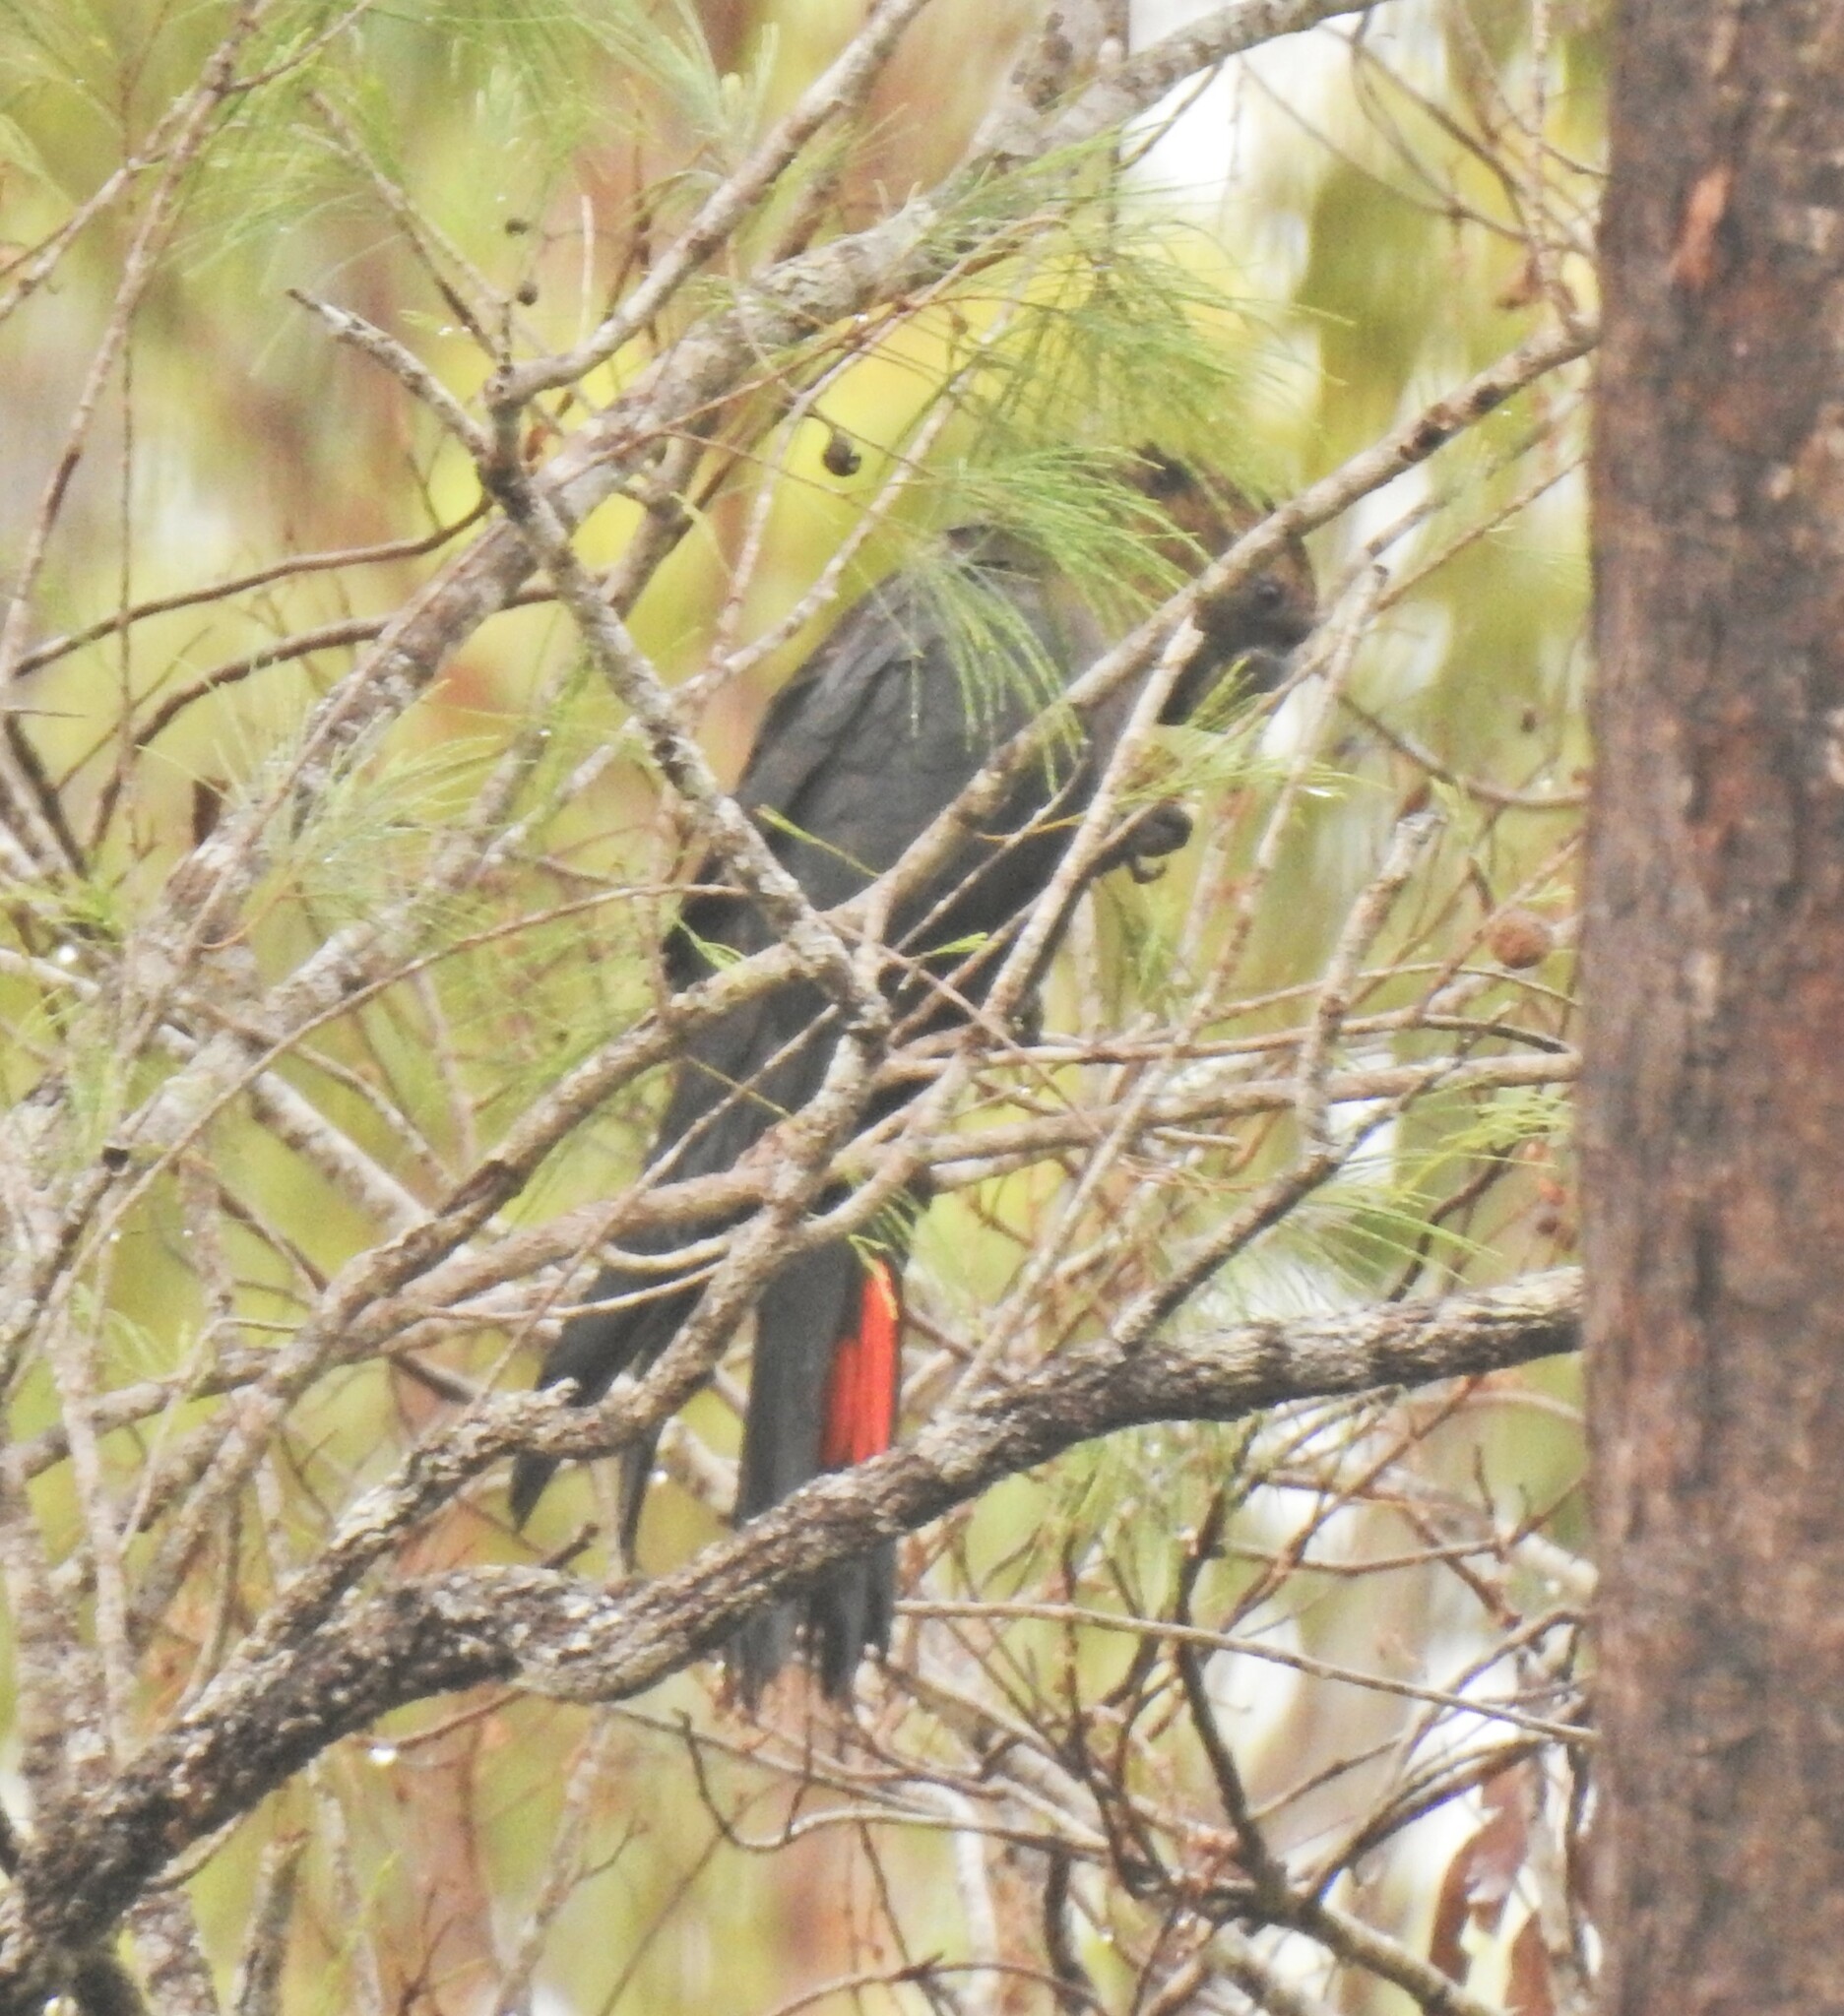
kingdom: Animalia
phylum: Chordata
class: Aves
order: Psittaciformes
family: Psittacidae
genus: Calyptorhynchus
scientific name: Calyptorhynchus lathami
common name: Glossy black cockatoo
